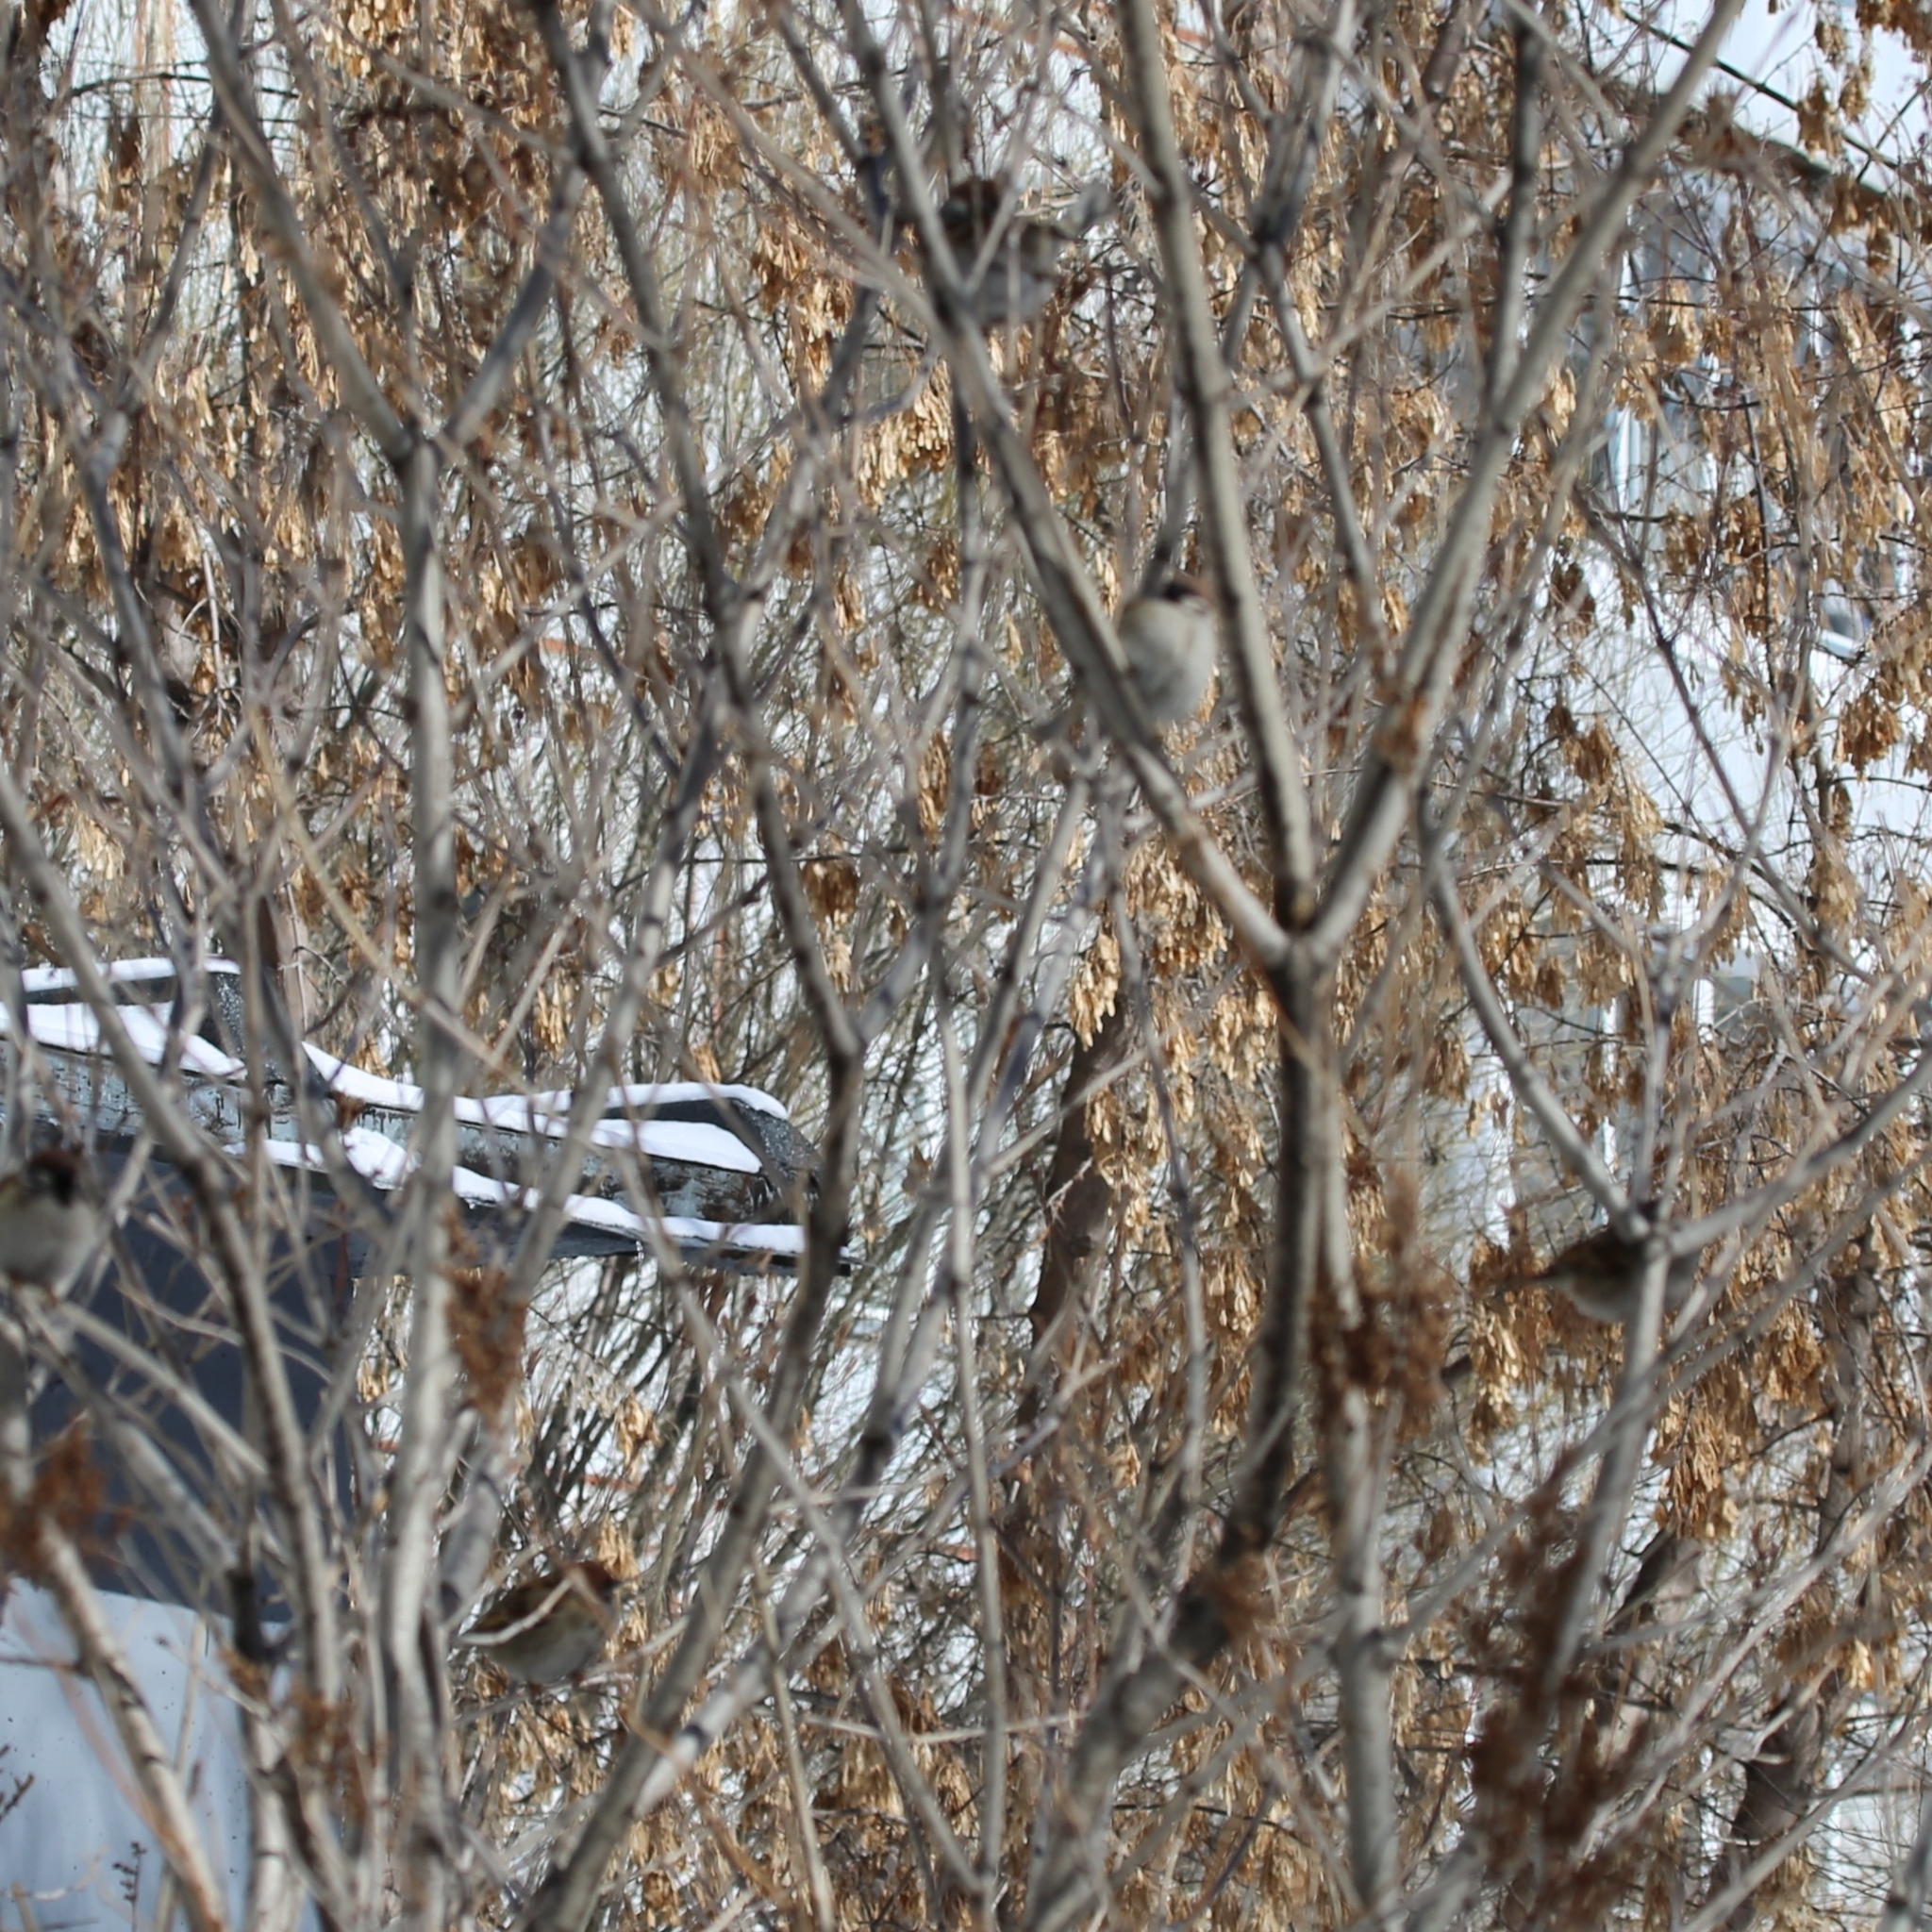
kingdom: Animalia
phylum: Chordata
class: Aves
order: Passeriformes
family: Passeridae
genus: Passer
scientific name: Passer montanus
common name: Eurasian tree sparrow
